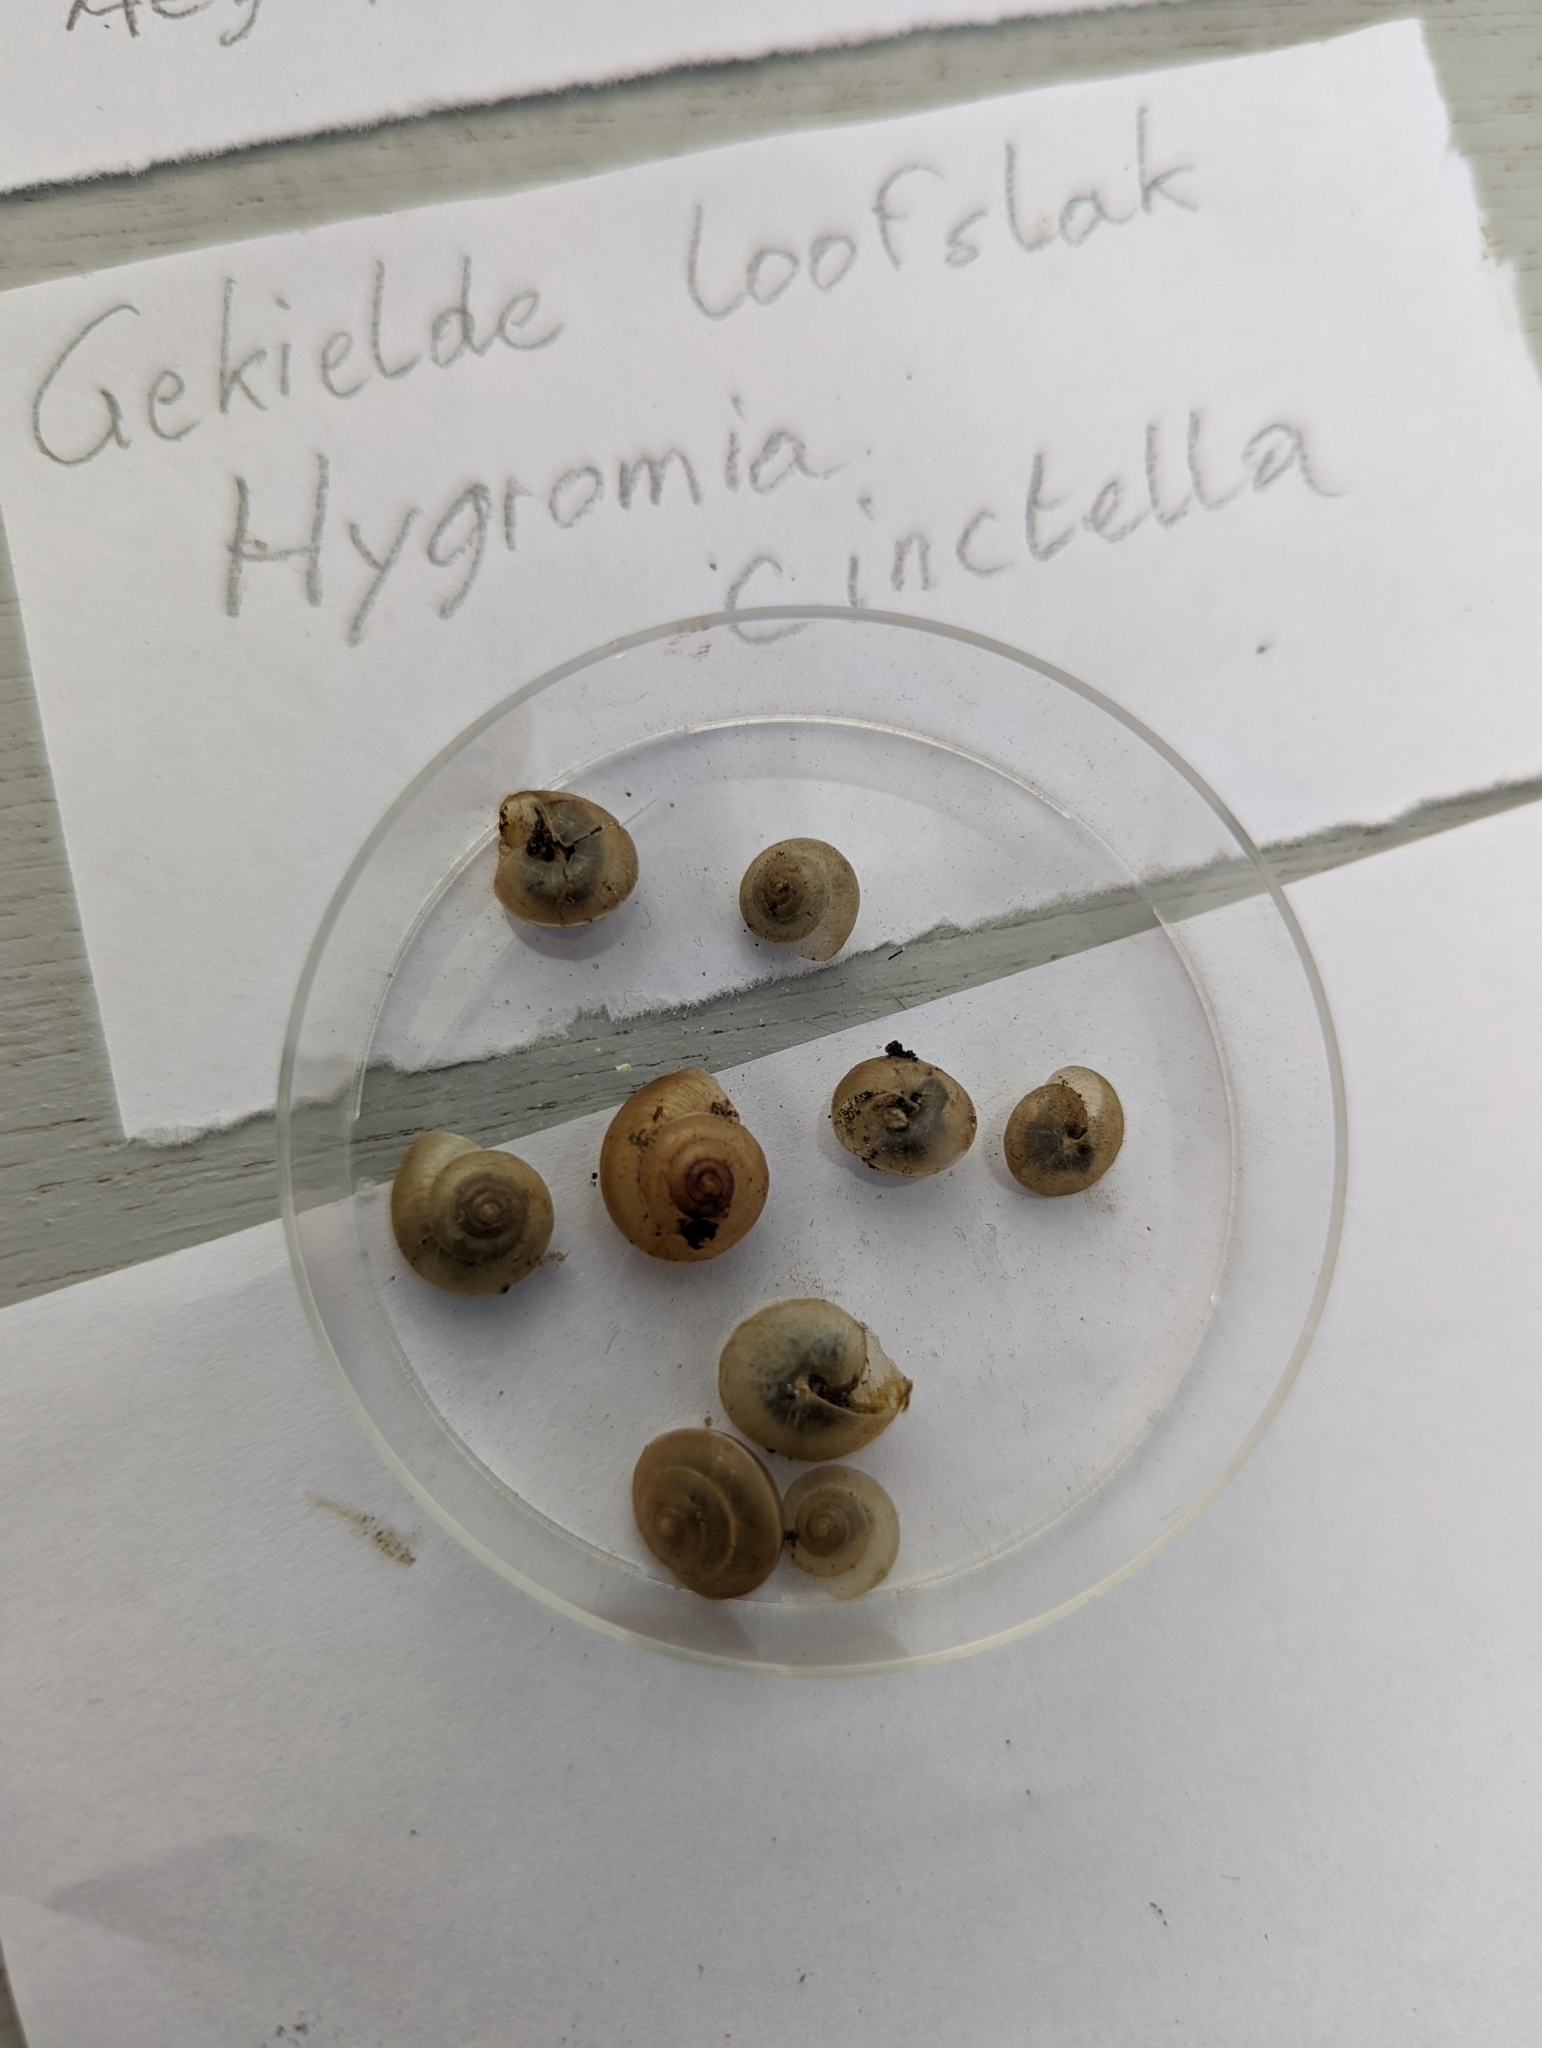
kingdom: Animalia
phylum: Mollusca
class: Gastropoda
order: Stylommatophora
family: Hygromiidae
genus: Hygromia
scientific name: Hygromia cinctella
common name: Girdled snail
